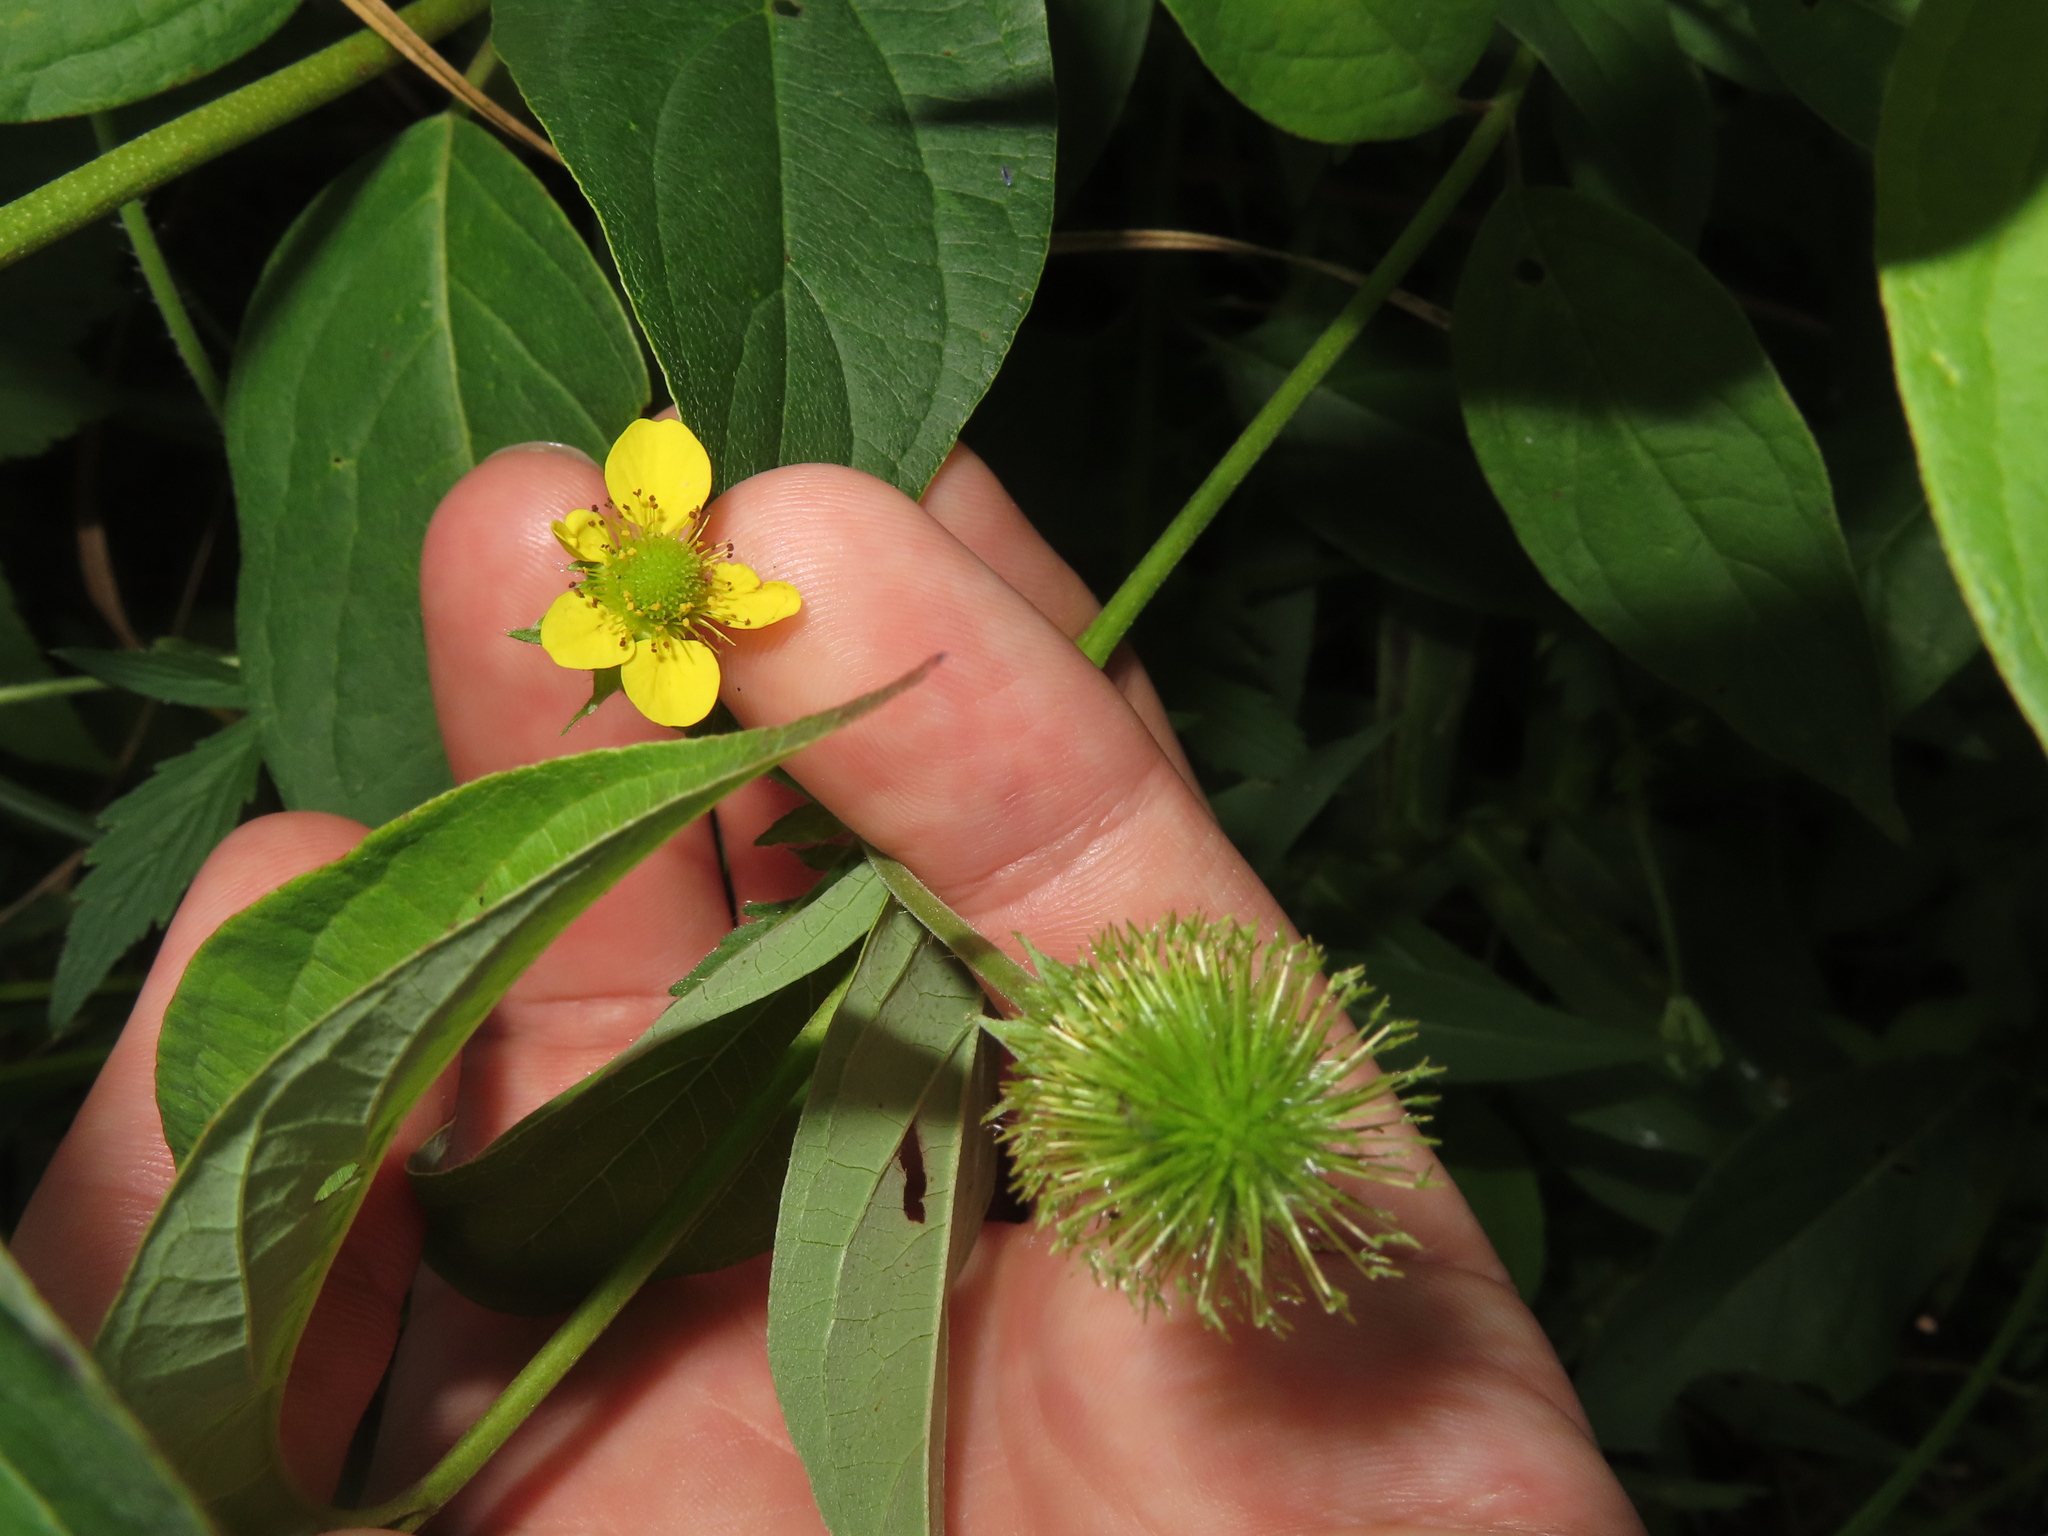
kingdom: Plantae
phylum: Tracheophyta
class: Magnoliopsida
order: Rosales
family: Rosaceae
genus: Geum
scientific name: Geum aleppicum
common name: Yellow avens
